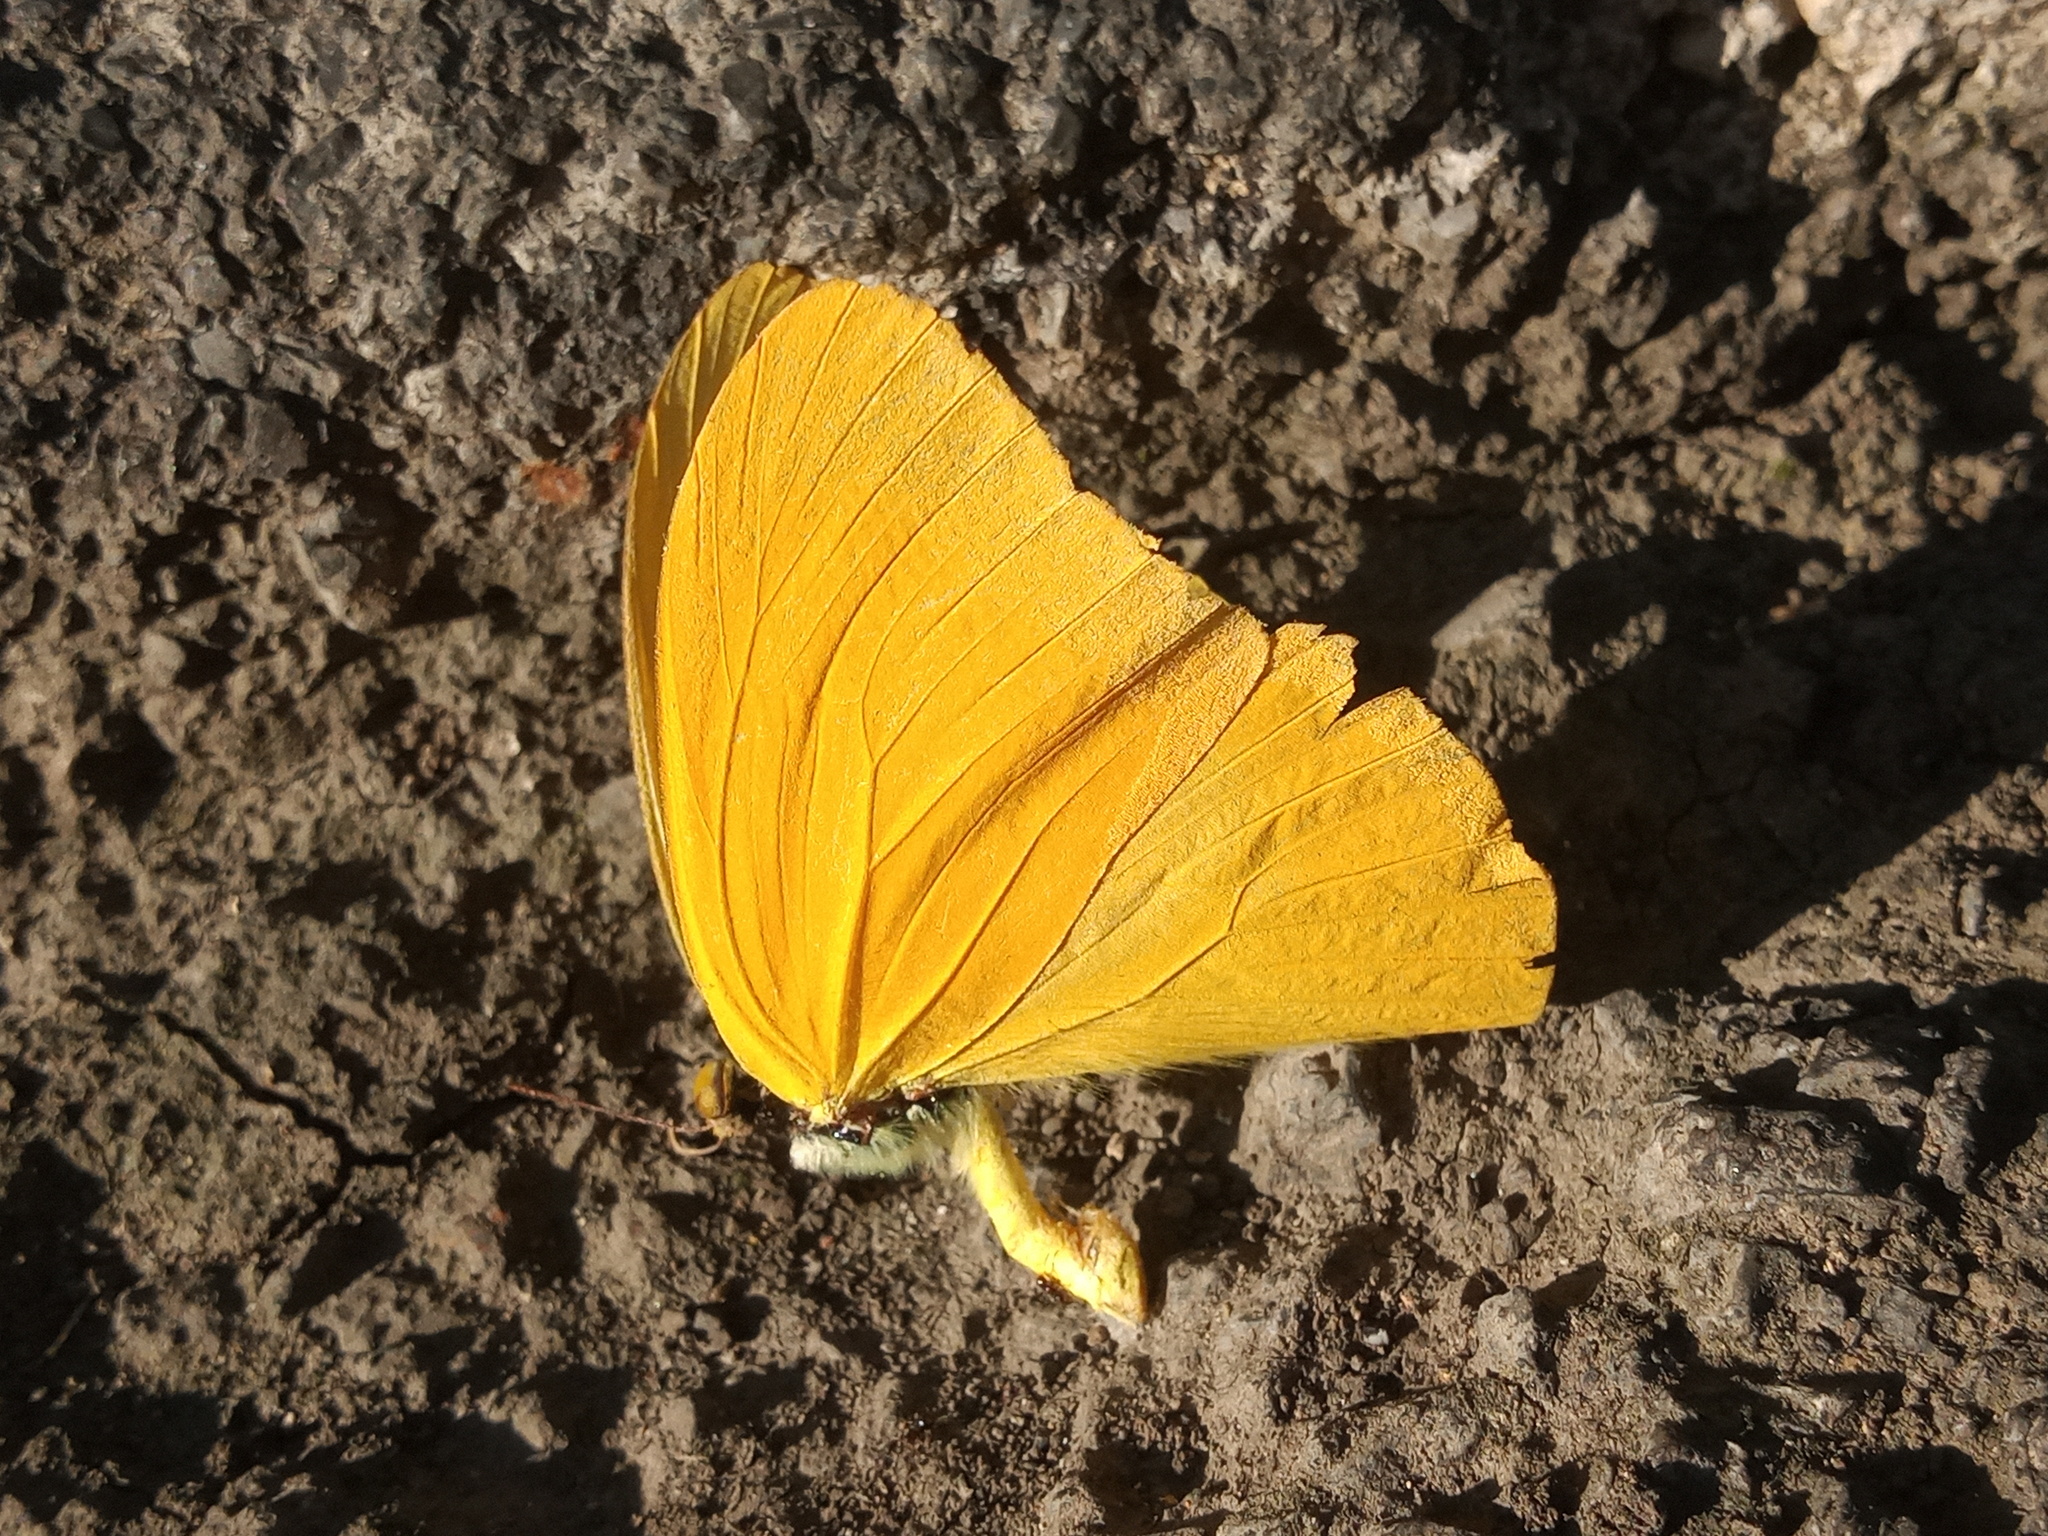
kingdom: Animalia
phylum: Arthropoda
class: Insecta
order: Lepidoptera
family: Pieridae
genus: Phoebis
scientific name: Phoebis agarithe
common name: Large orange sulphur
